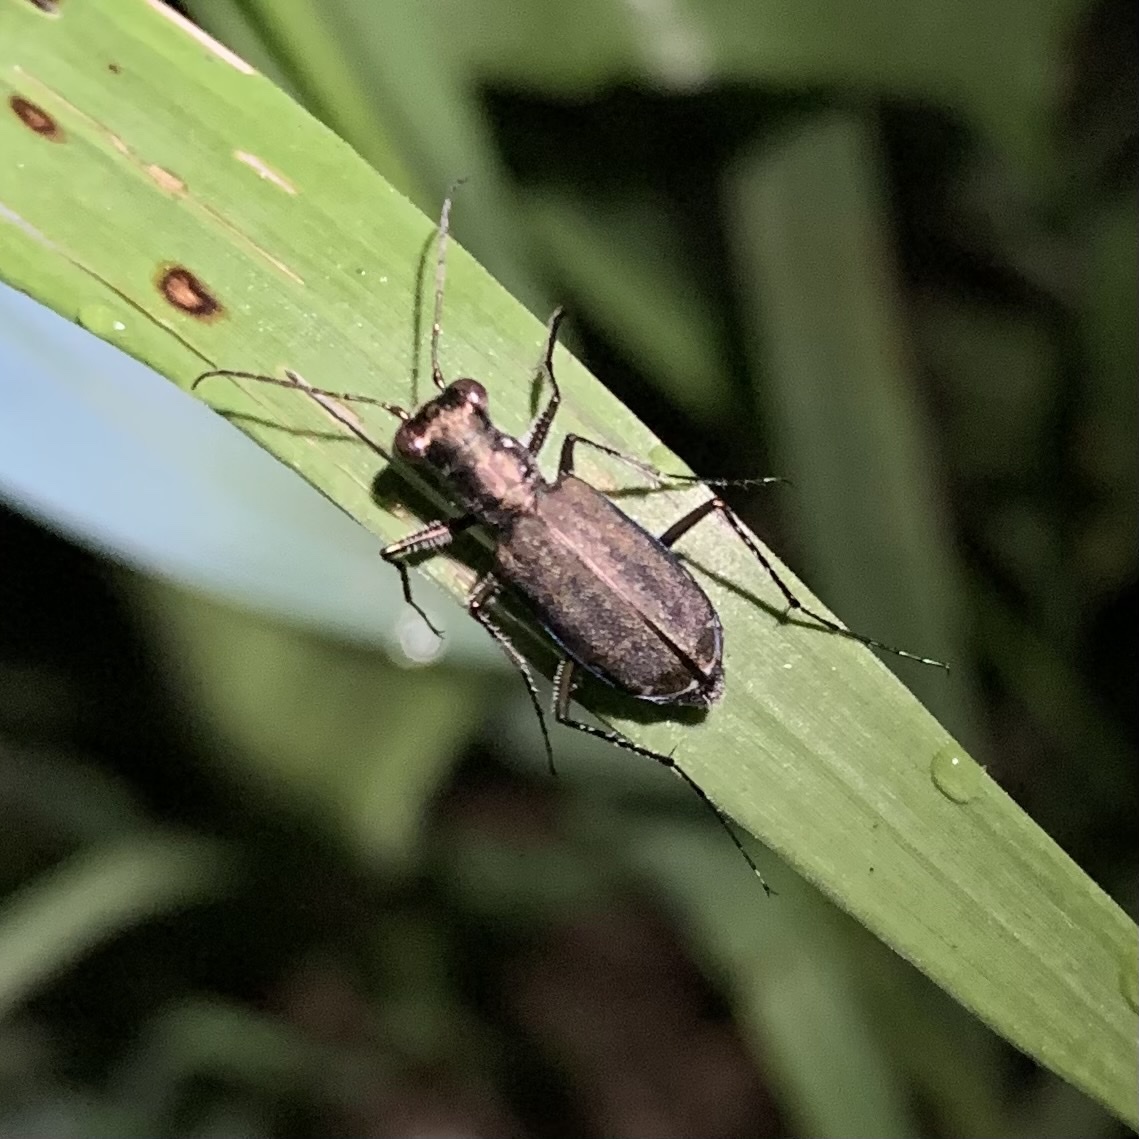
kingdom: Animalia
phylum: Arthropoda
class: Insecta
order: Coleoptera
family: Carabidae
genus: Cicindela
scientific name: Cicindela punctulata
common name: Punctured tiger beetle
